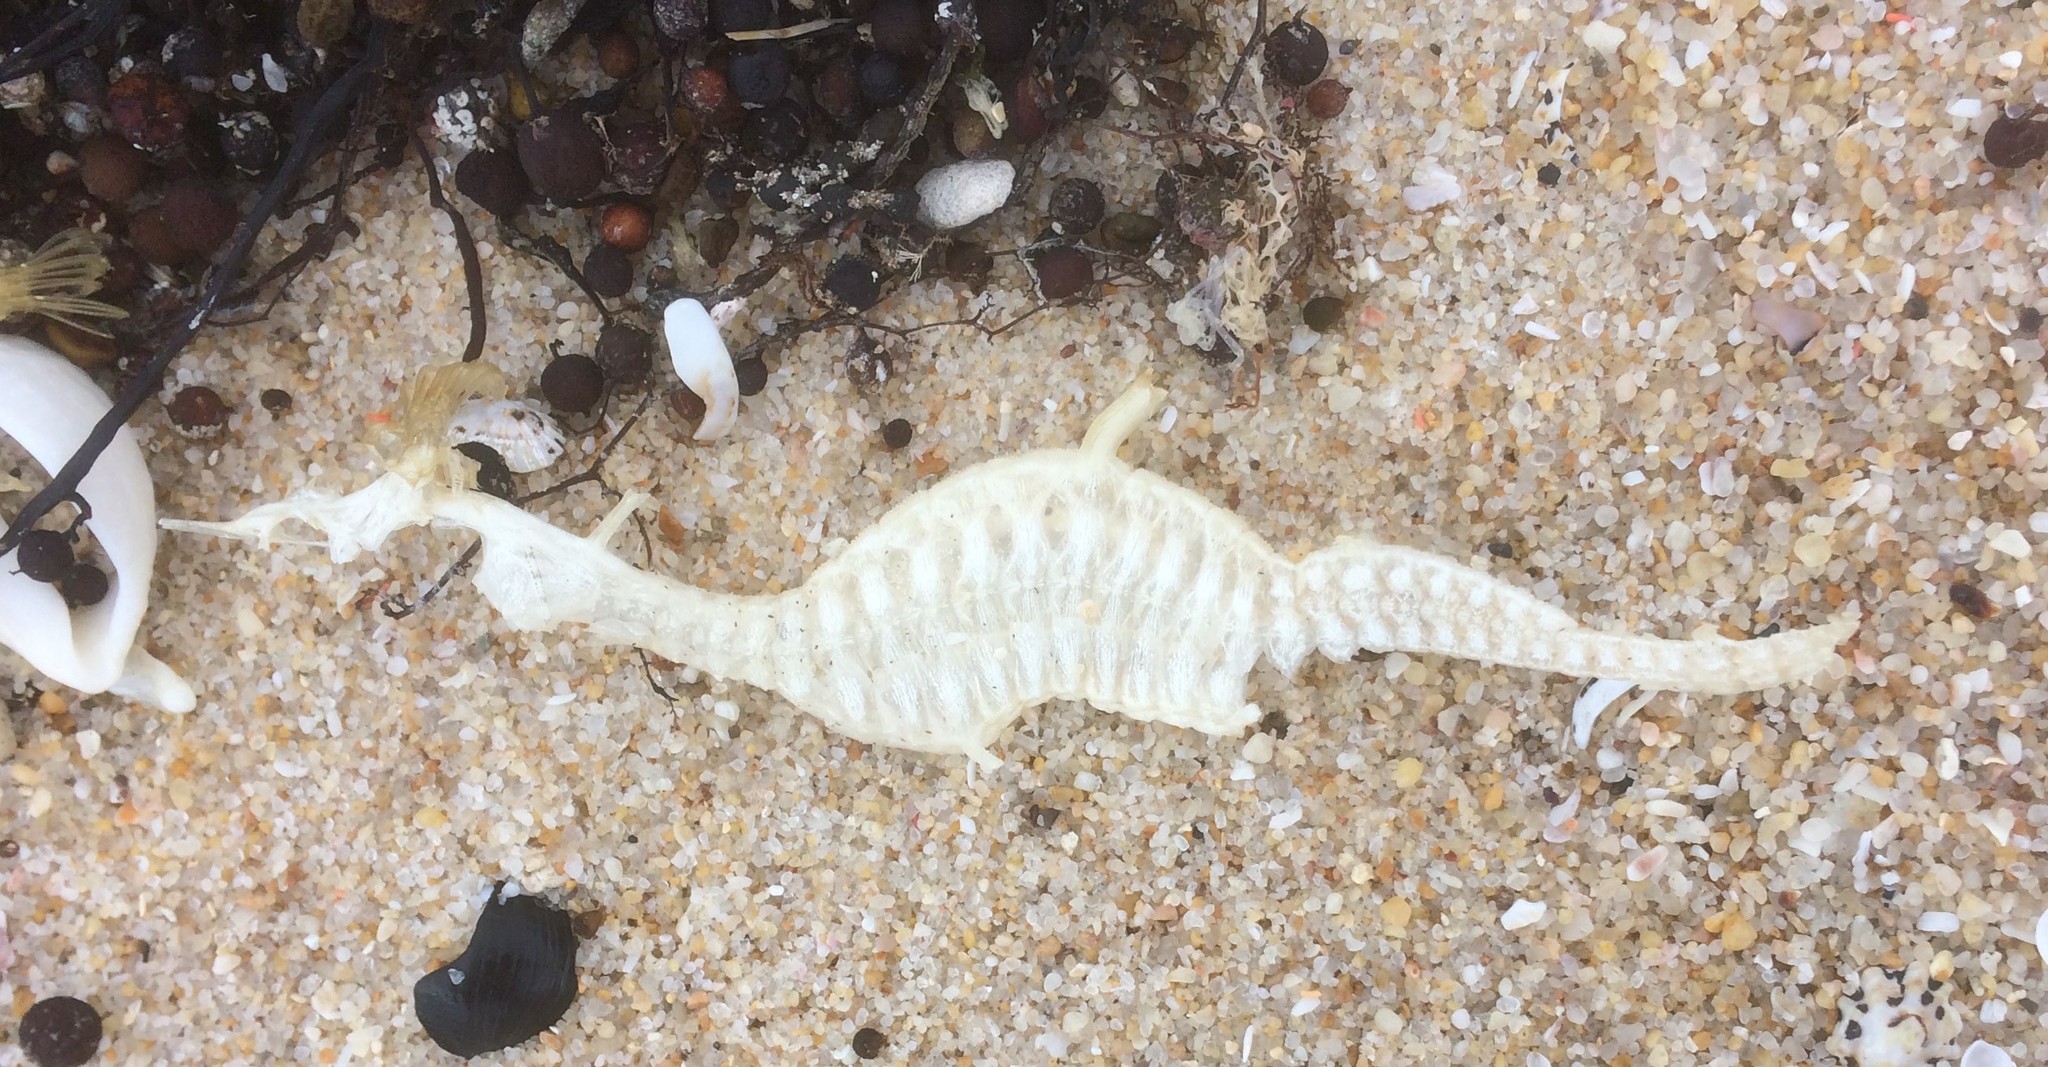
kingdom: Animalia
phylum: Chordata
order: Syngnathiformes
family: Syngnathidae
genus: Phyllopteryx
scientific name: Phyllopteryx taeniolatus
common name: Common seadragon
